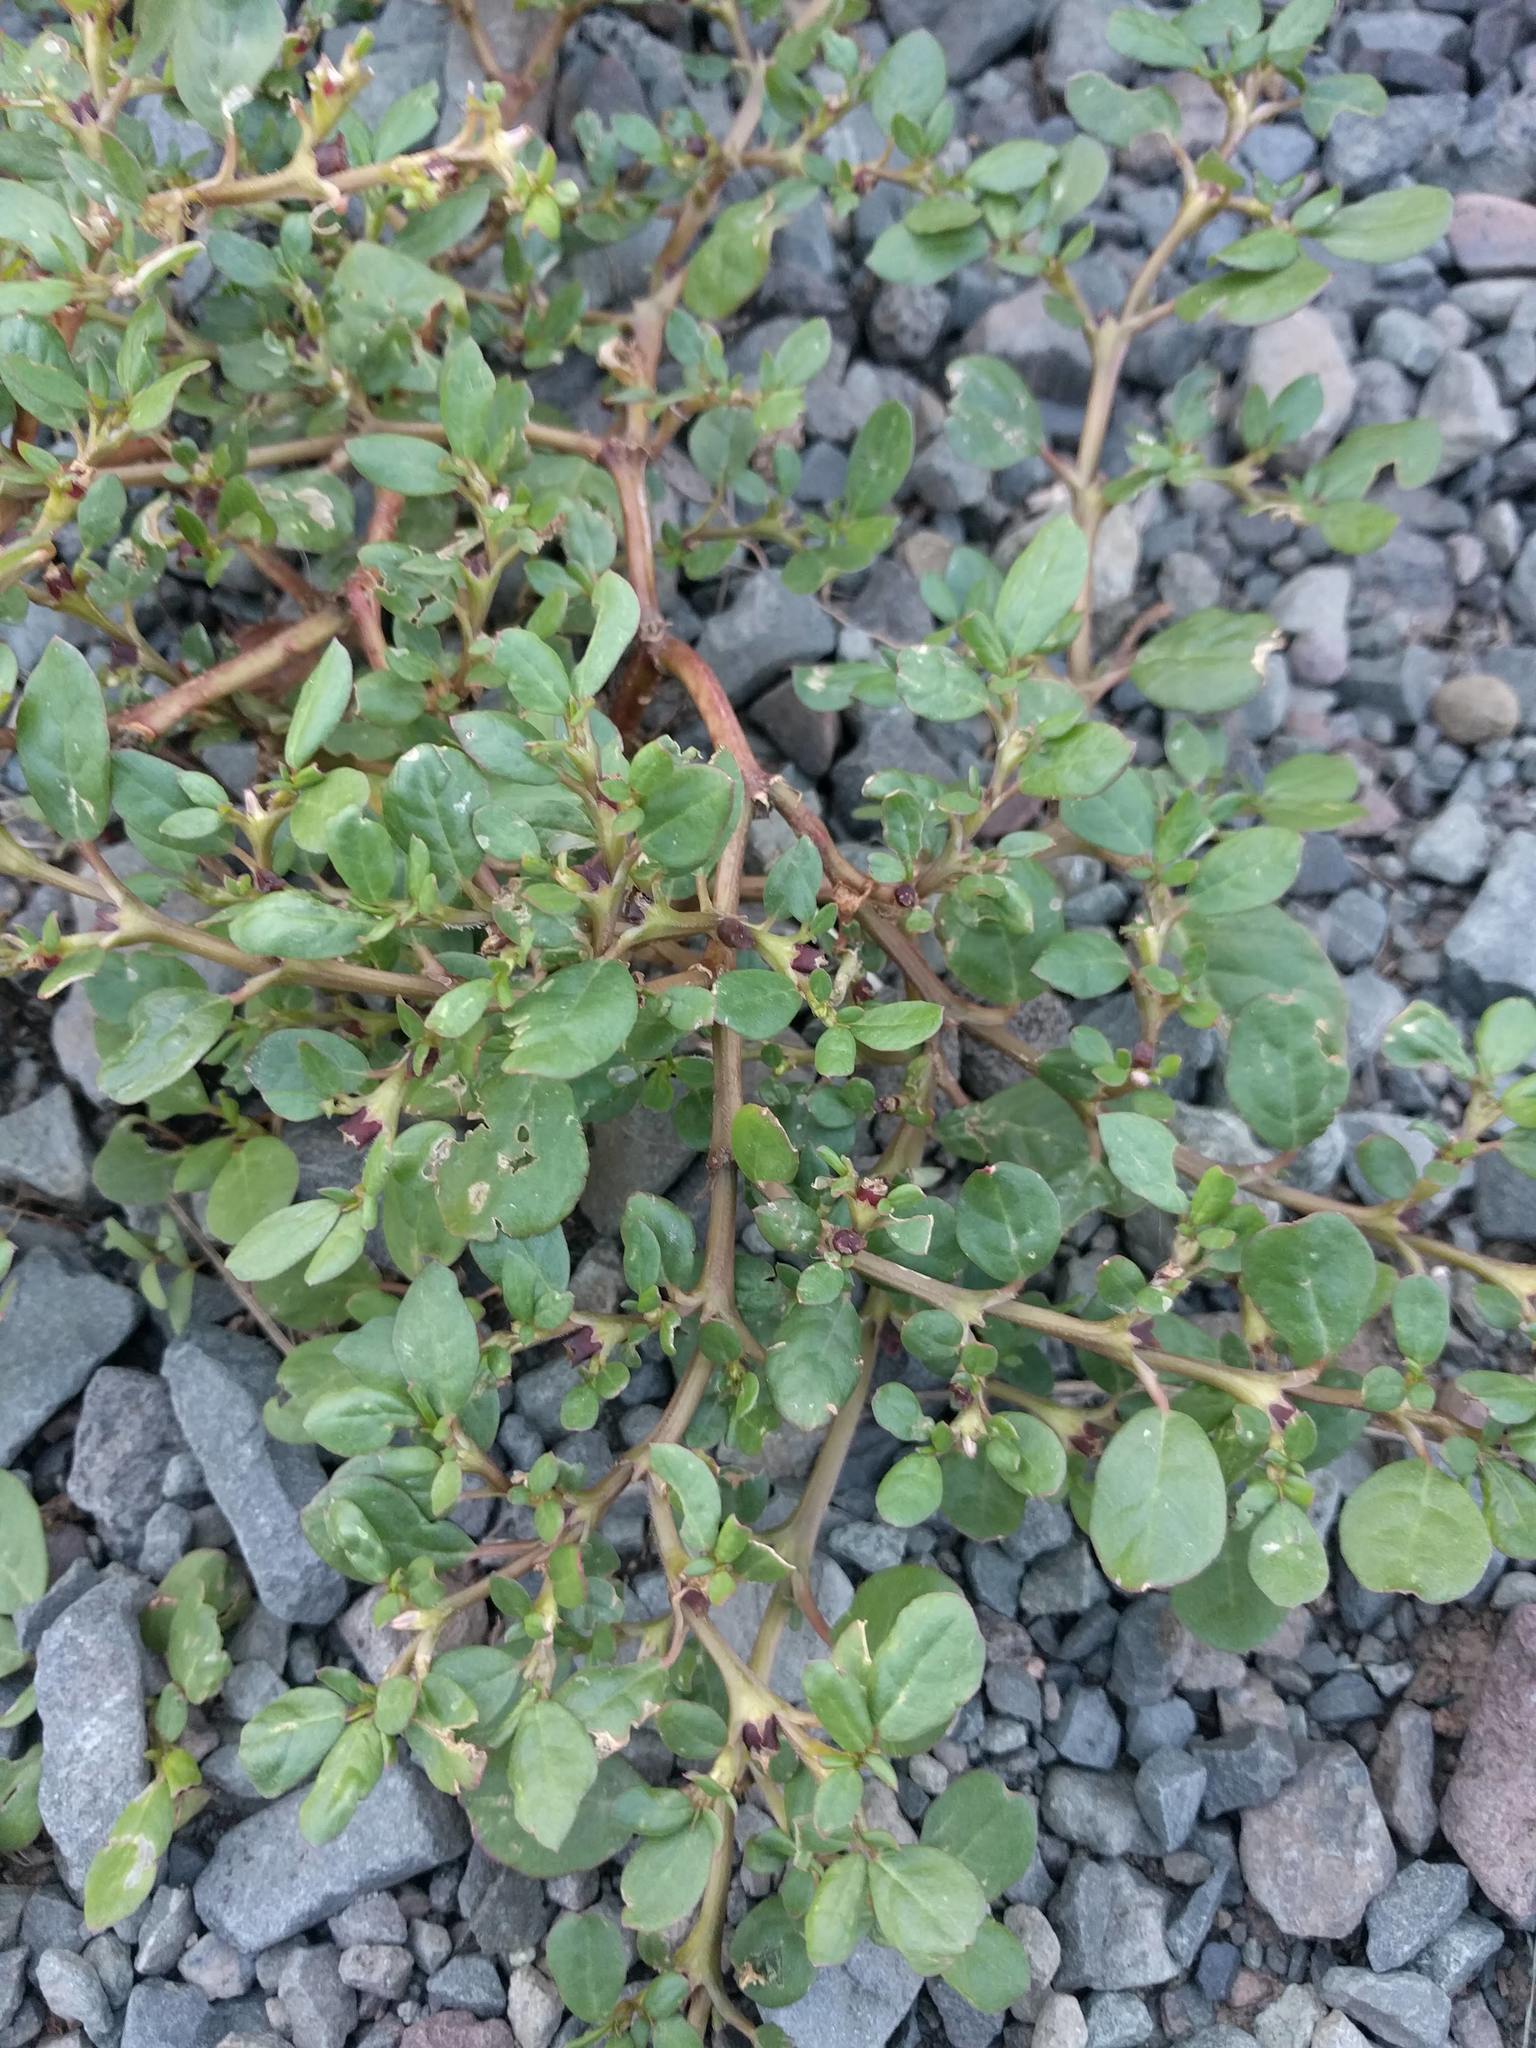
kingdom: Plantae
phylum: Tracheophyta
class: Magnoliopsida
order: Caryophyllales
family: Aizoaceae
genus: Trianthema
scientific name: Trianthema portulacastrum
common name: Desert horsepurslane
